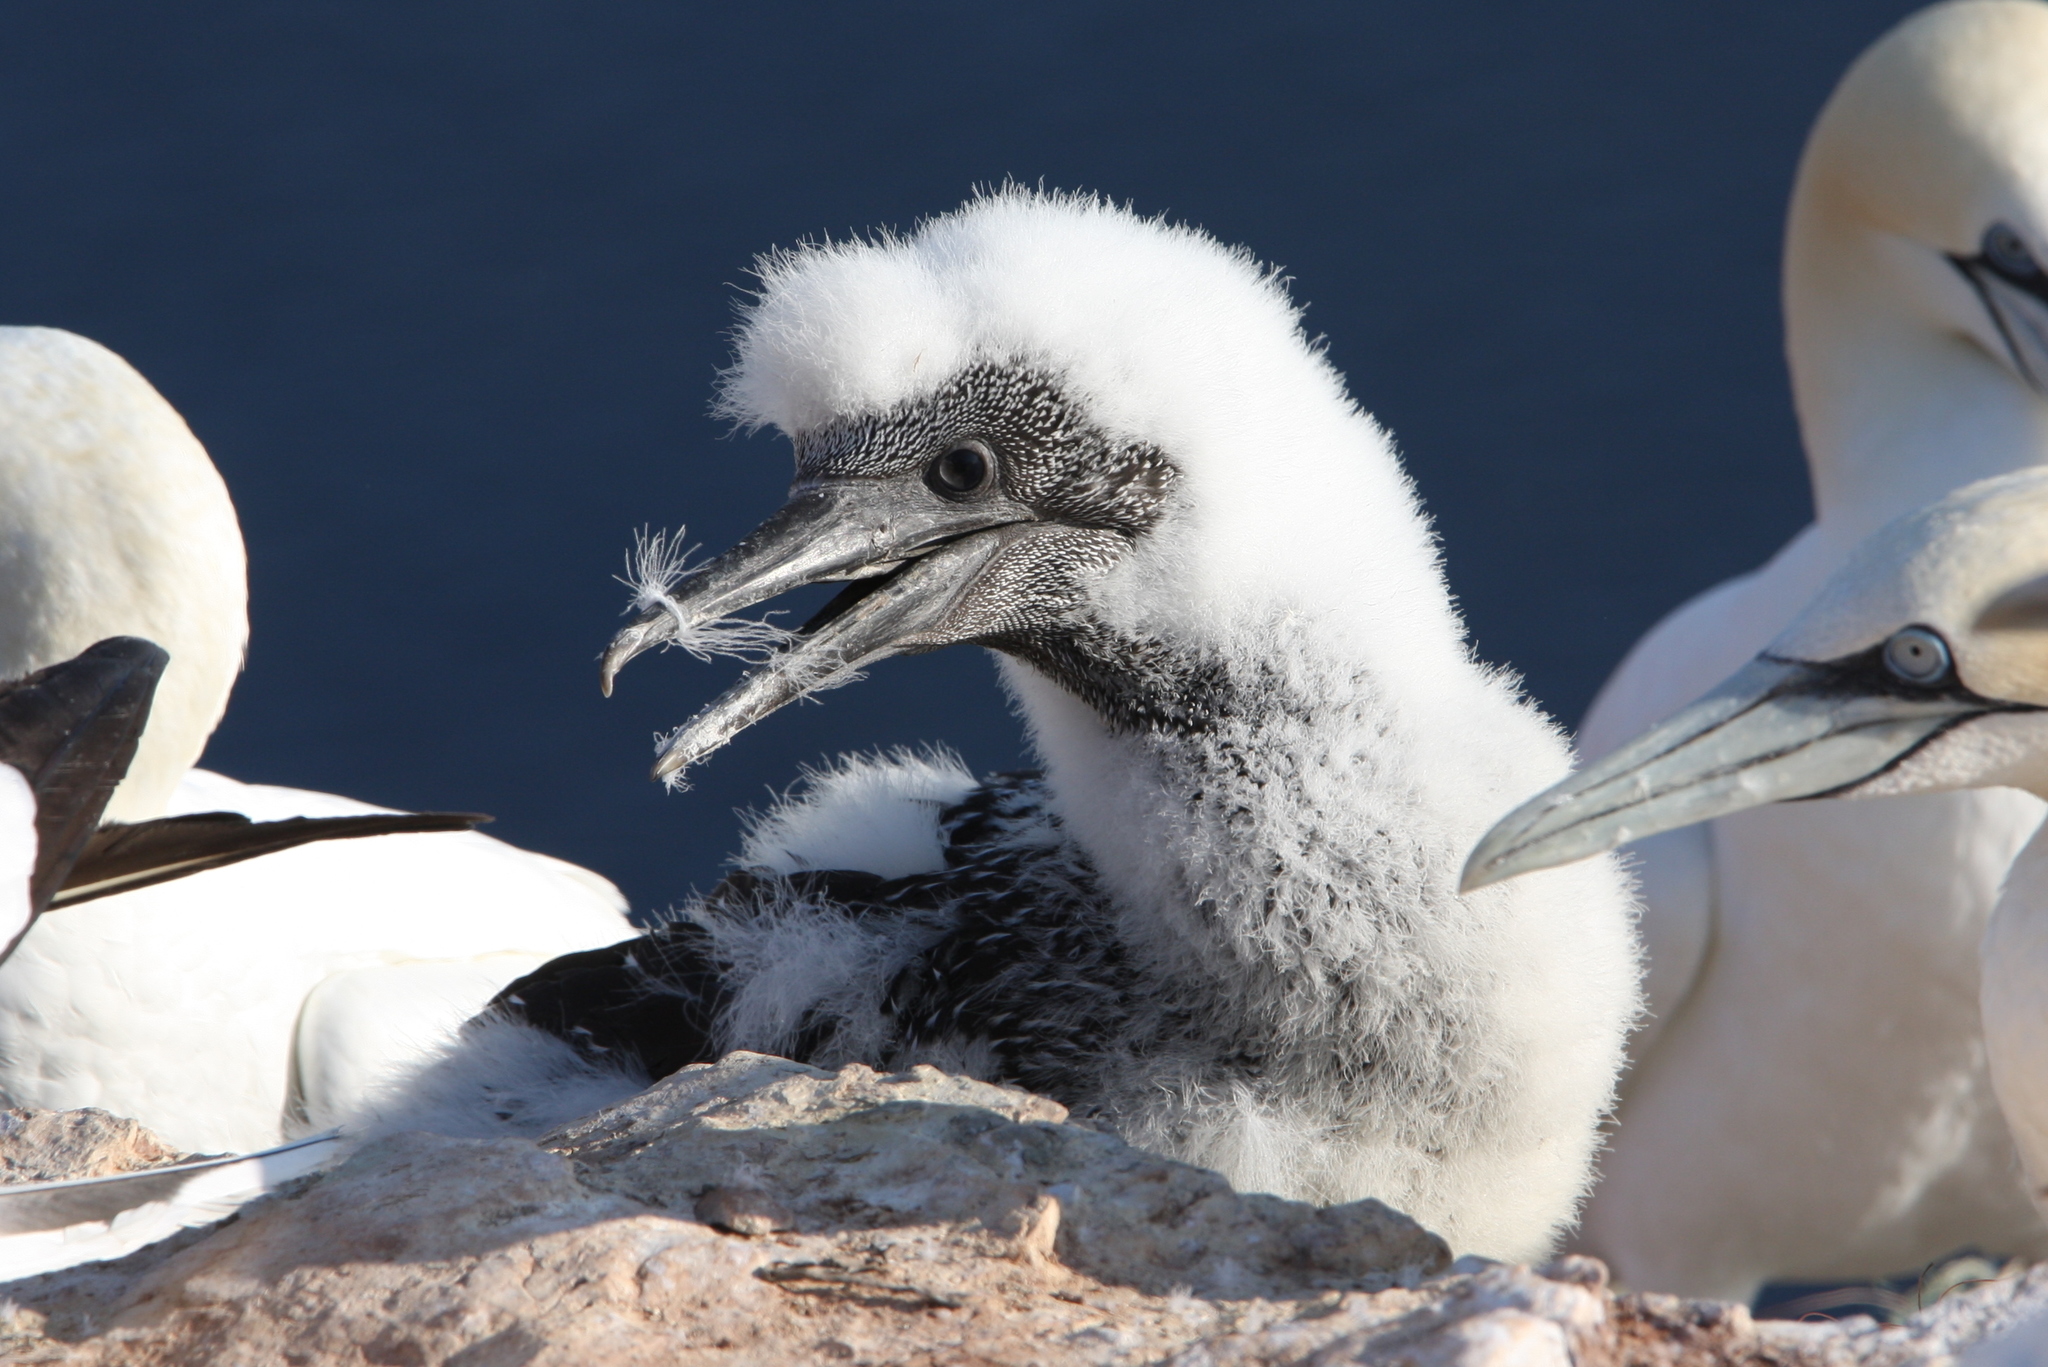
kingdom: Animalia
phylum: Chordata
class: Aves
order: Suliformes
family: Sulidae
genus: Morus
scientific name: Morus bassanus
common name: Northern gannet
